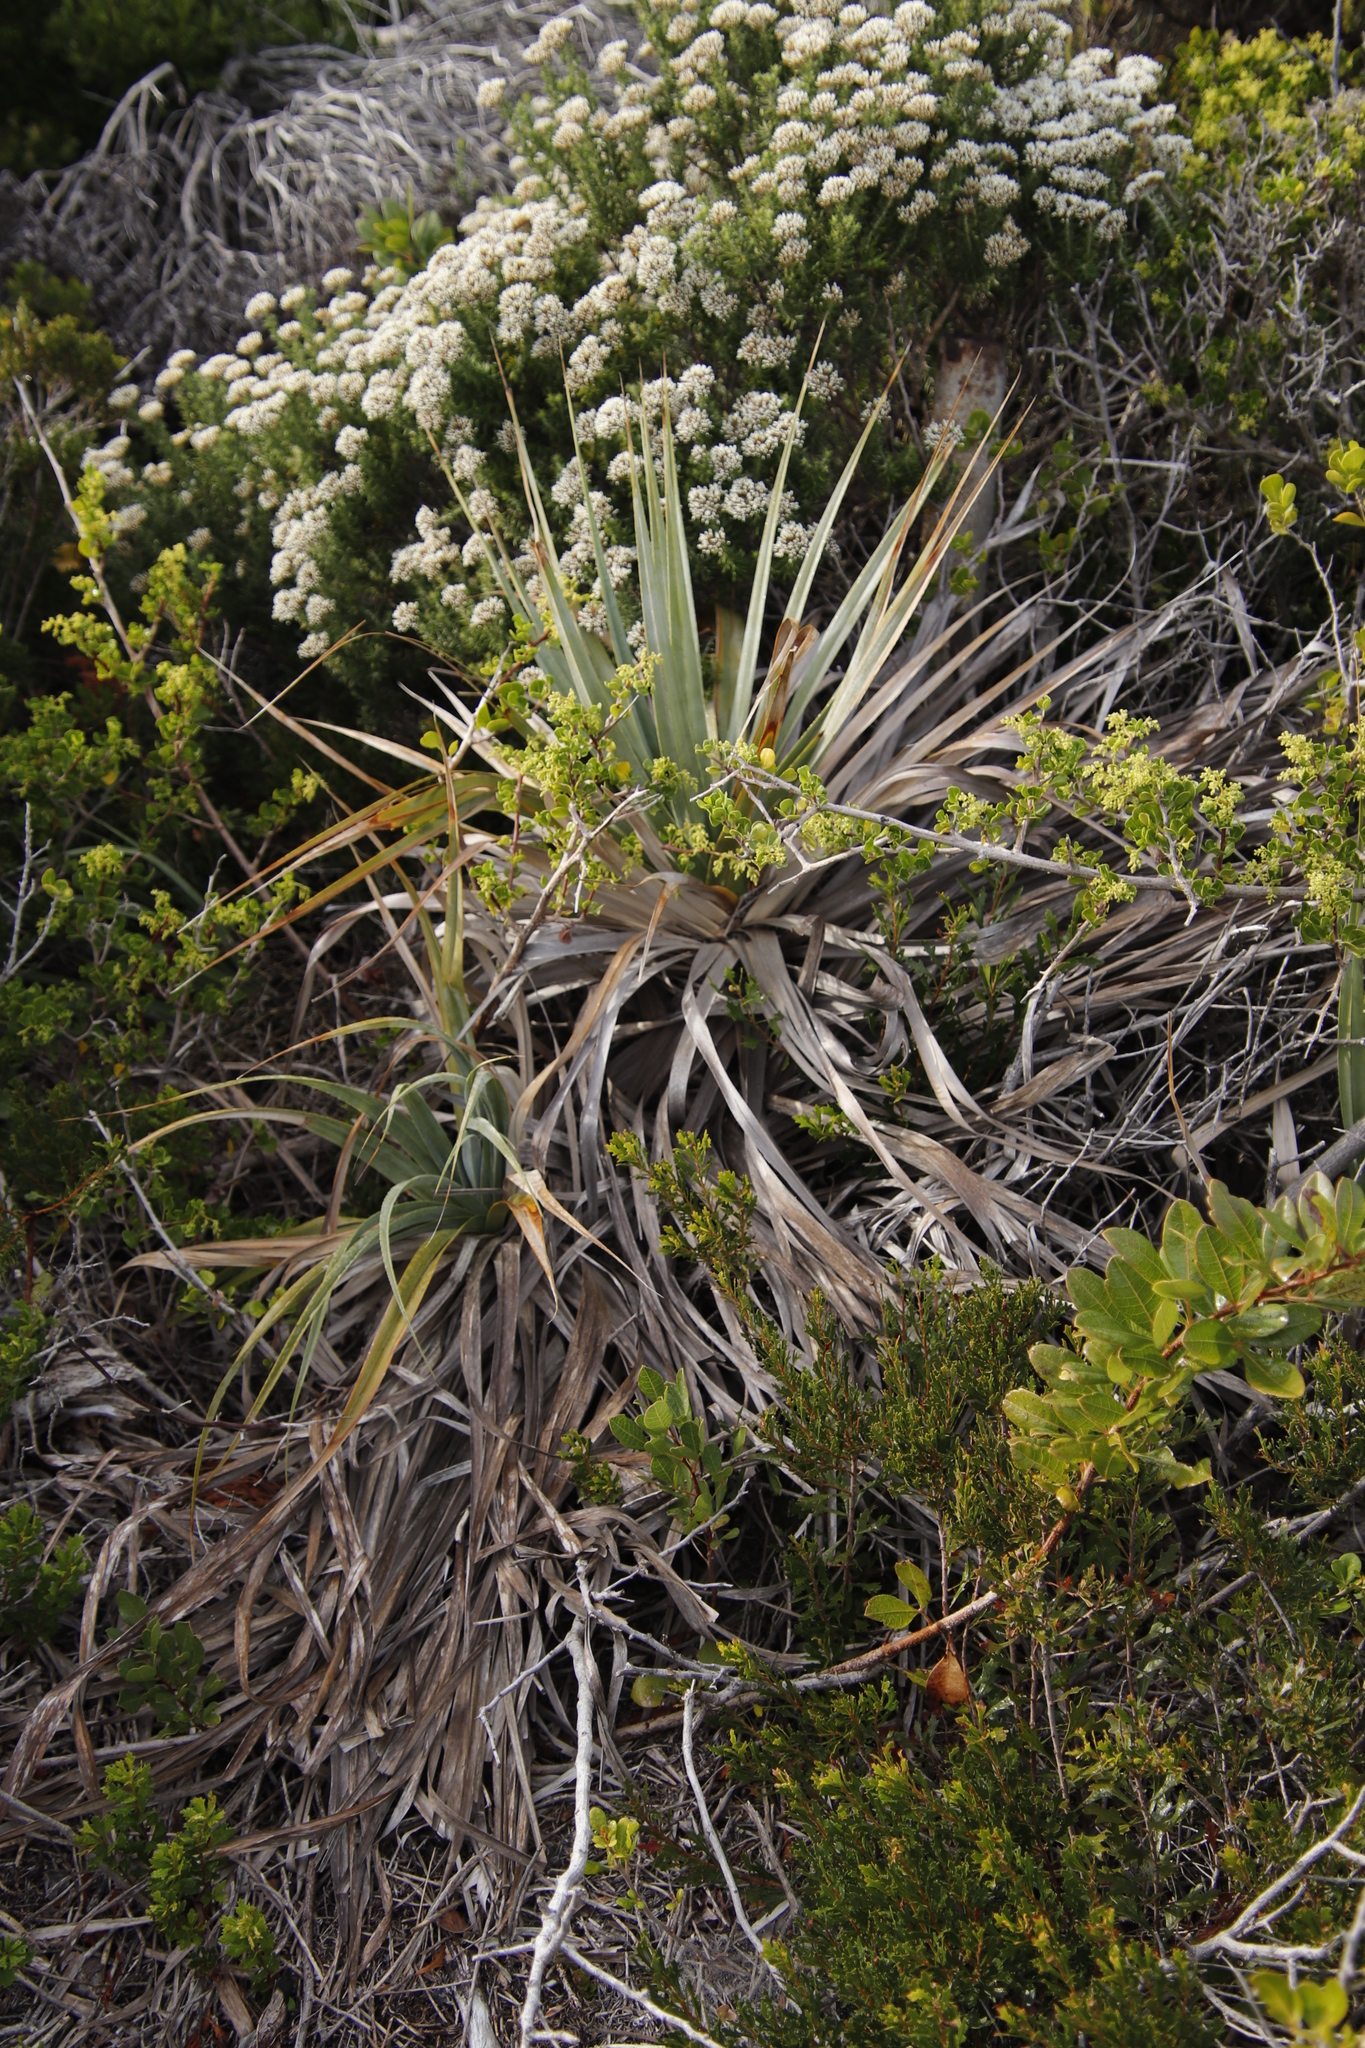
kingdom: Plantae
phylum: Tracheophyta
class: Liliopsida
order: Poales
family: Thurniaceae
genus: Prionium
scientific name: Prionium serratum
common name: Palmiet
